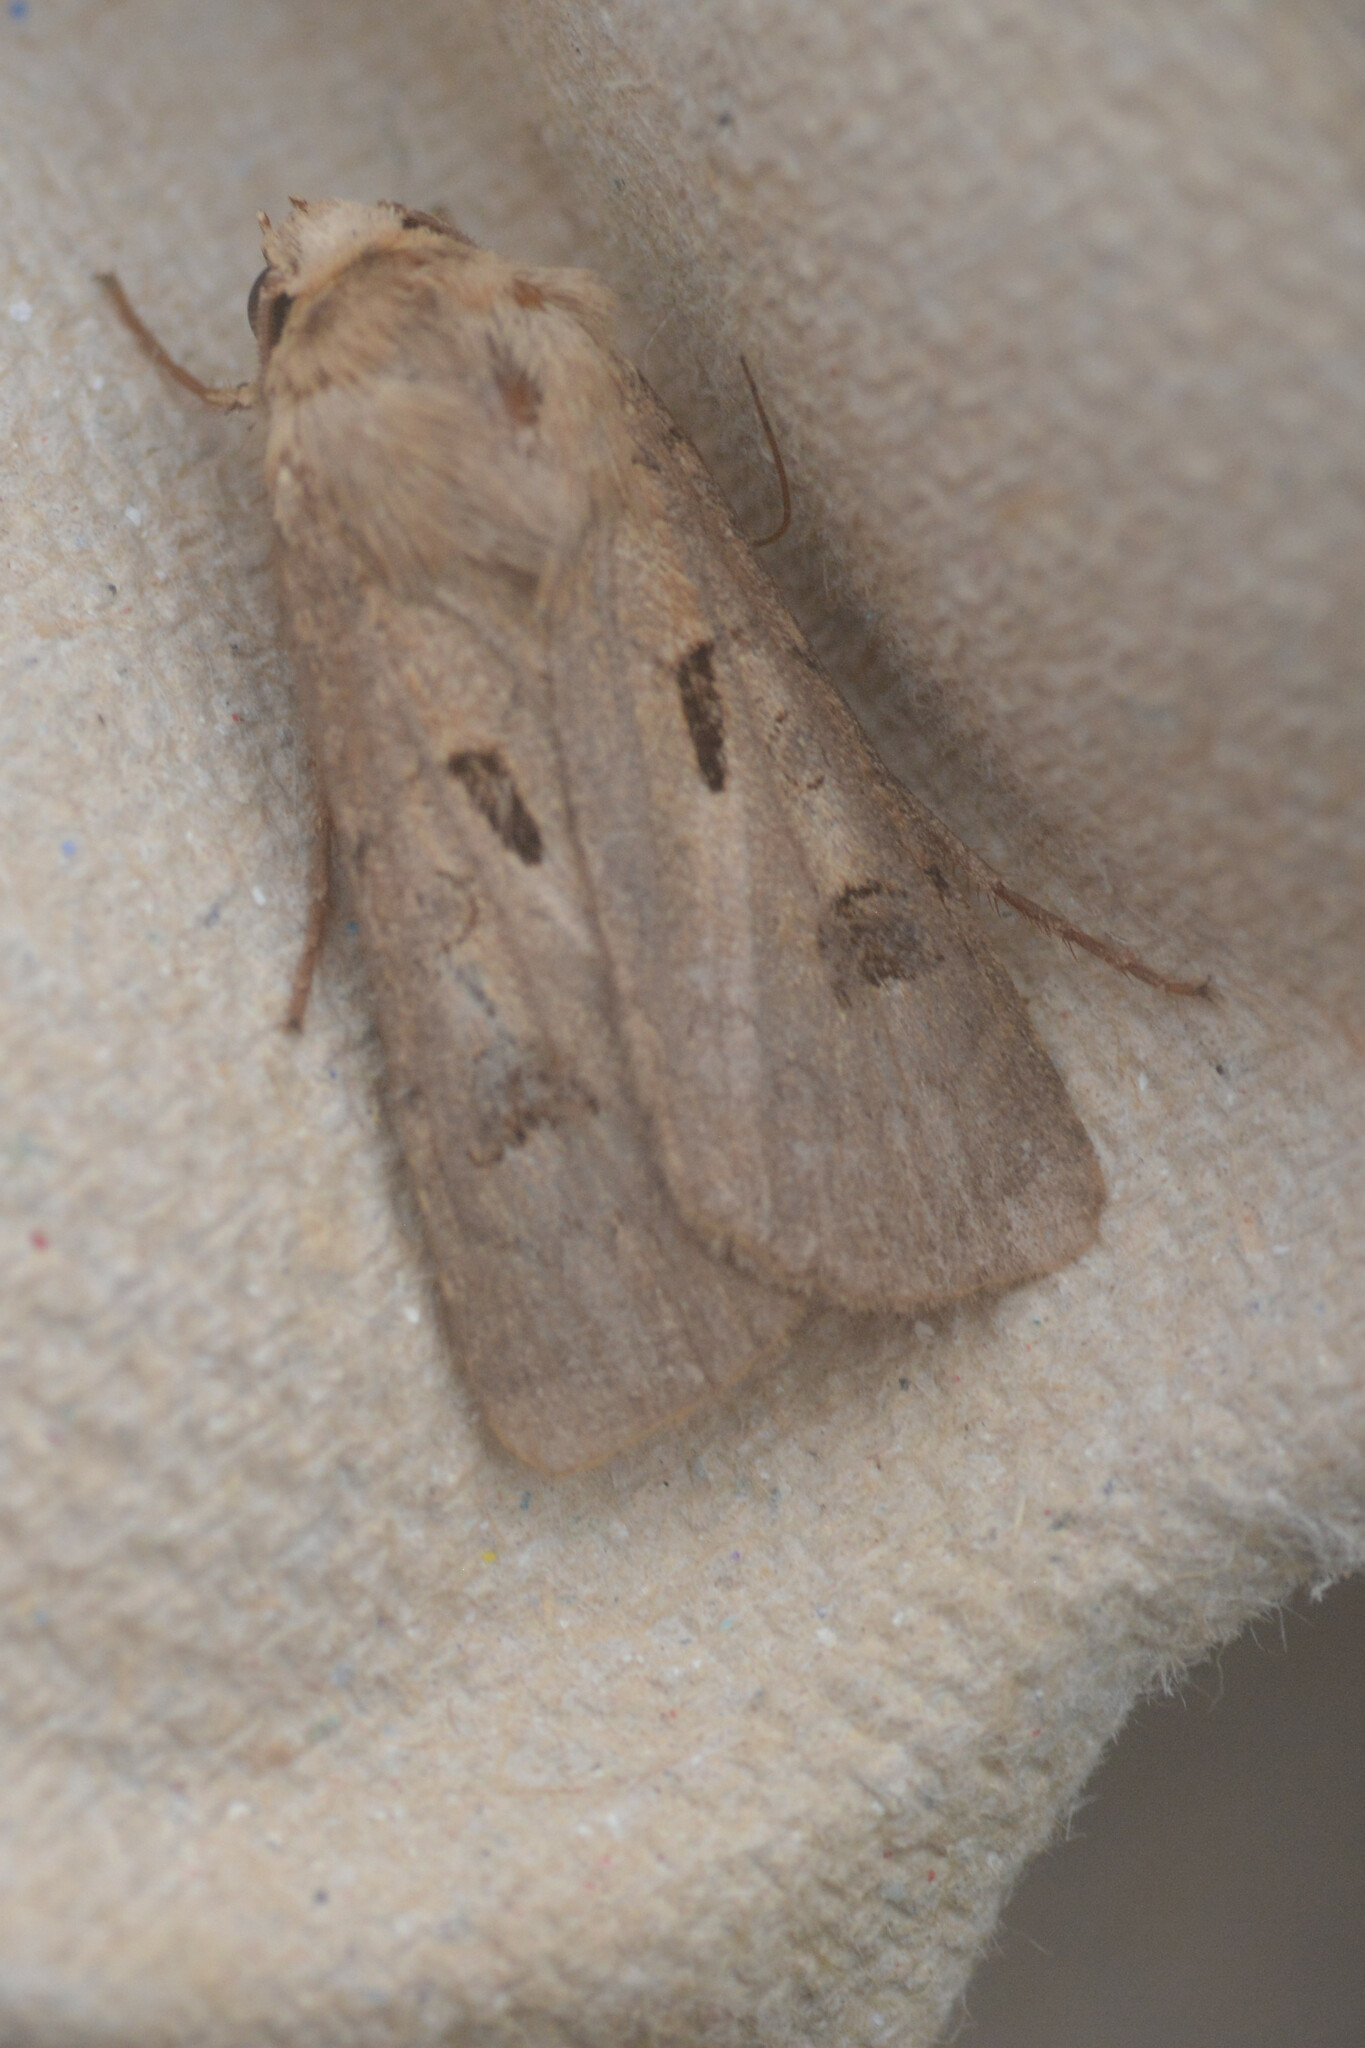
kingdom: Animalia
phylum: Arthropoda
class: Insecta
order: Lepidoptera
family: Noctuidae
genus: Agrotis
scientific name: Agrotis exclamationis
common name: Heart and dart
